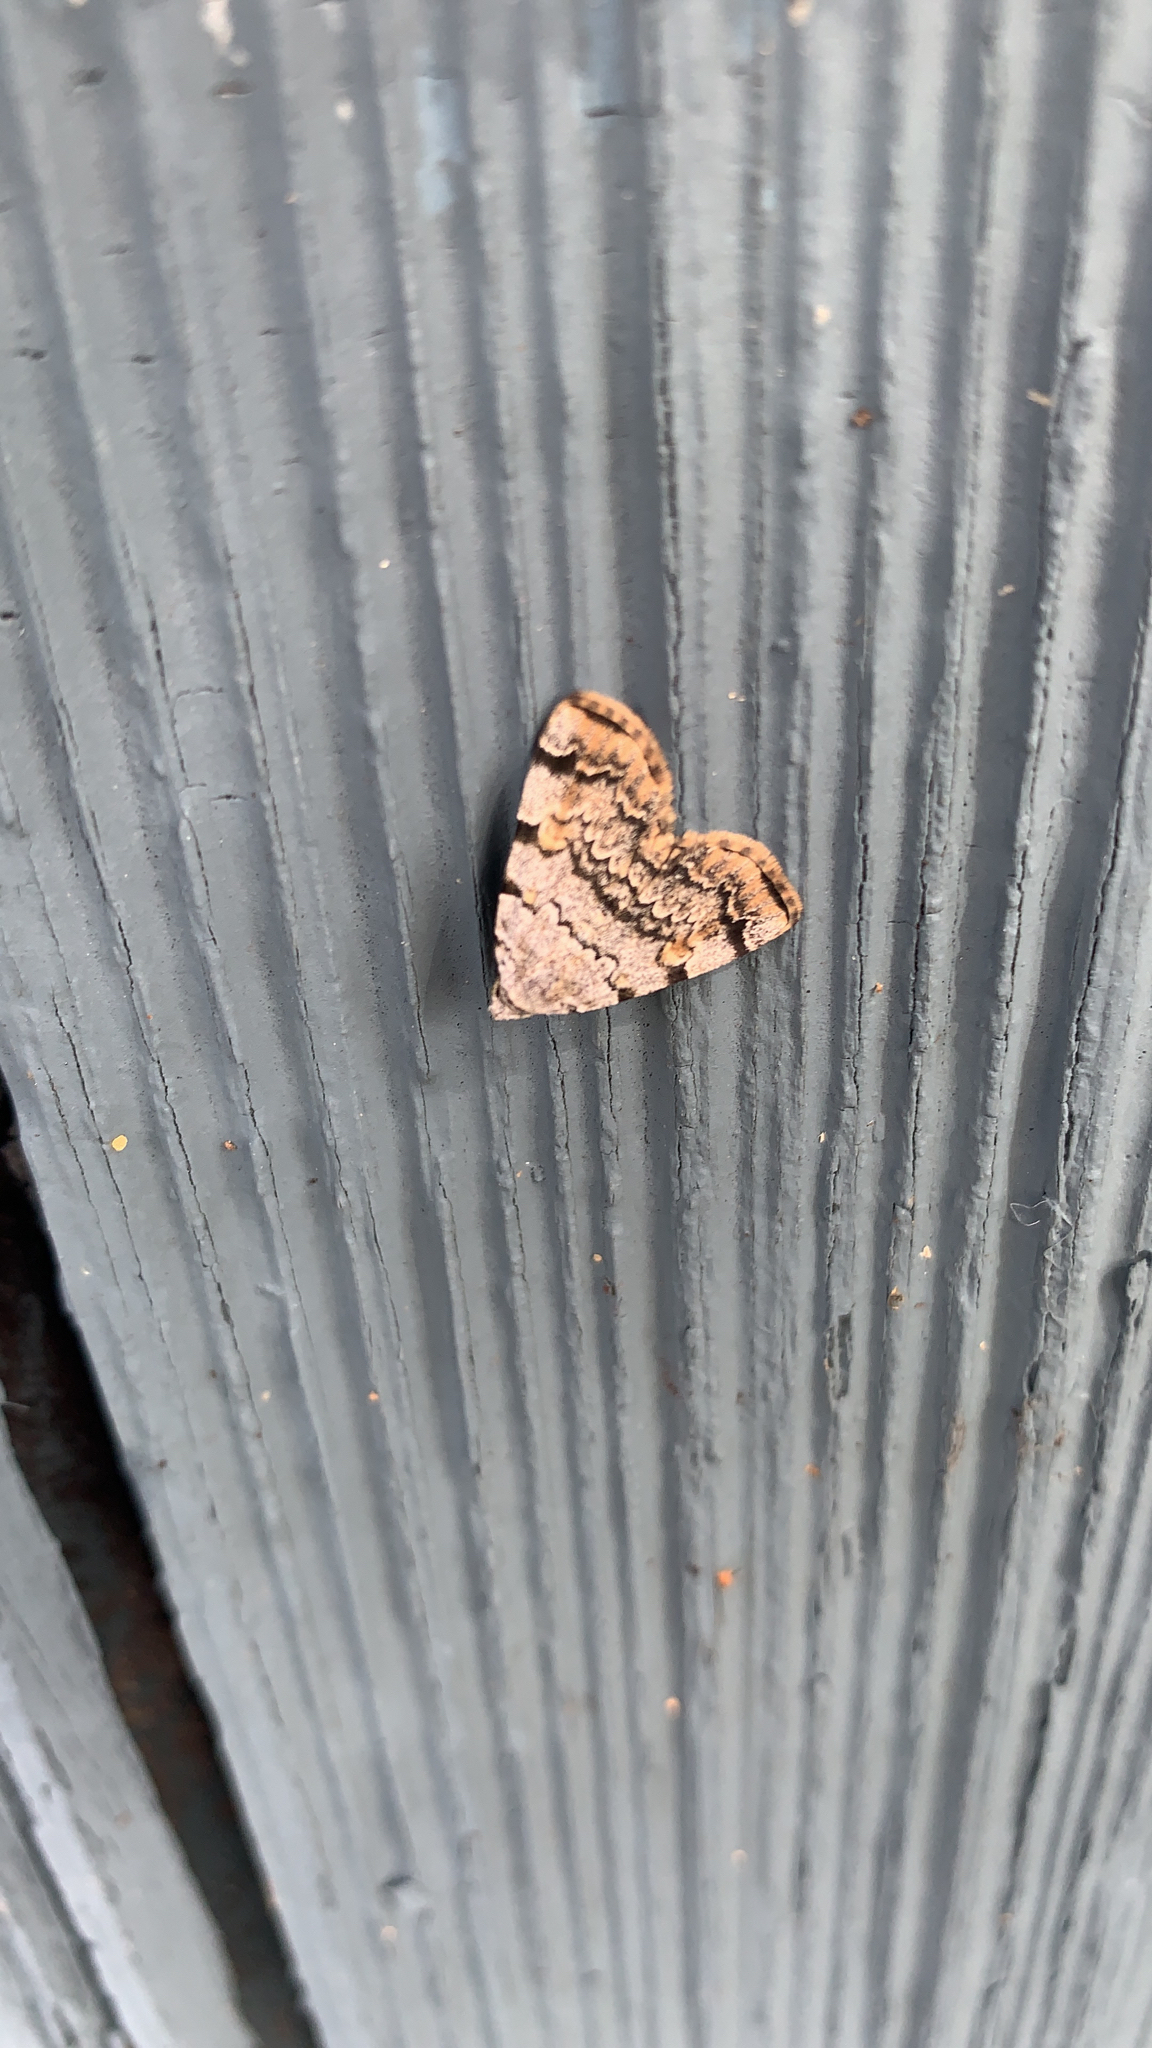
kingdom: Animalia
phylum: Arthropoda
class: Insecta
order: Lepidoptera
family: Erebidae
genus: Idia
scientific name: Idia americalis
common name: American idia moth
